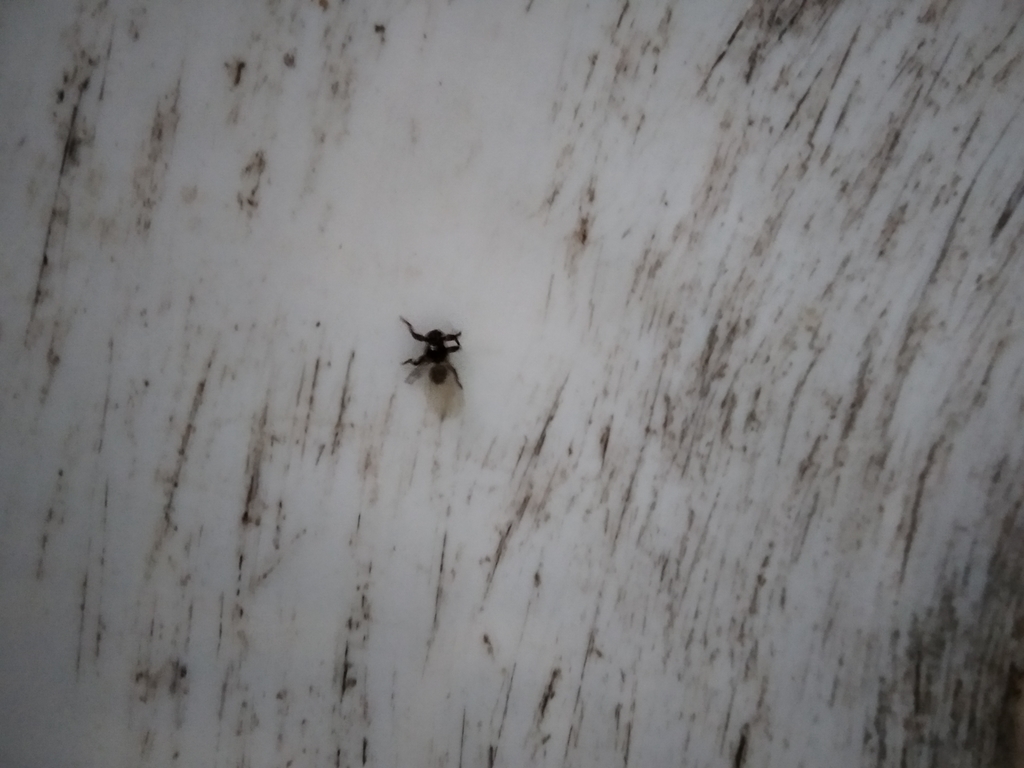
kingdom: Animalia
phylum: Arthropoda
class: Insecta
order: Diptera
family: Hippoboscidae
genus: Lipoptena
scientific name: Lipoptena cervi
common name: Deer ked
